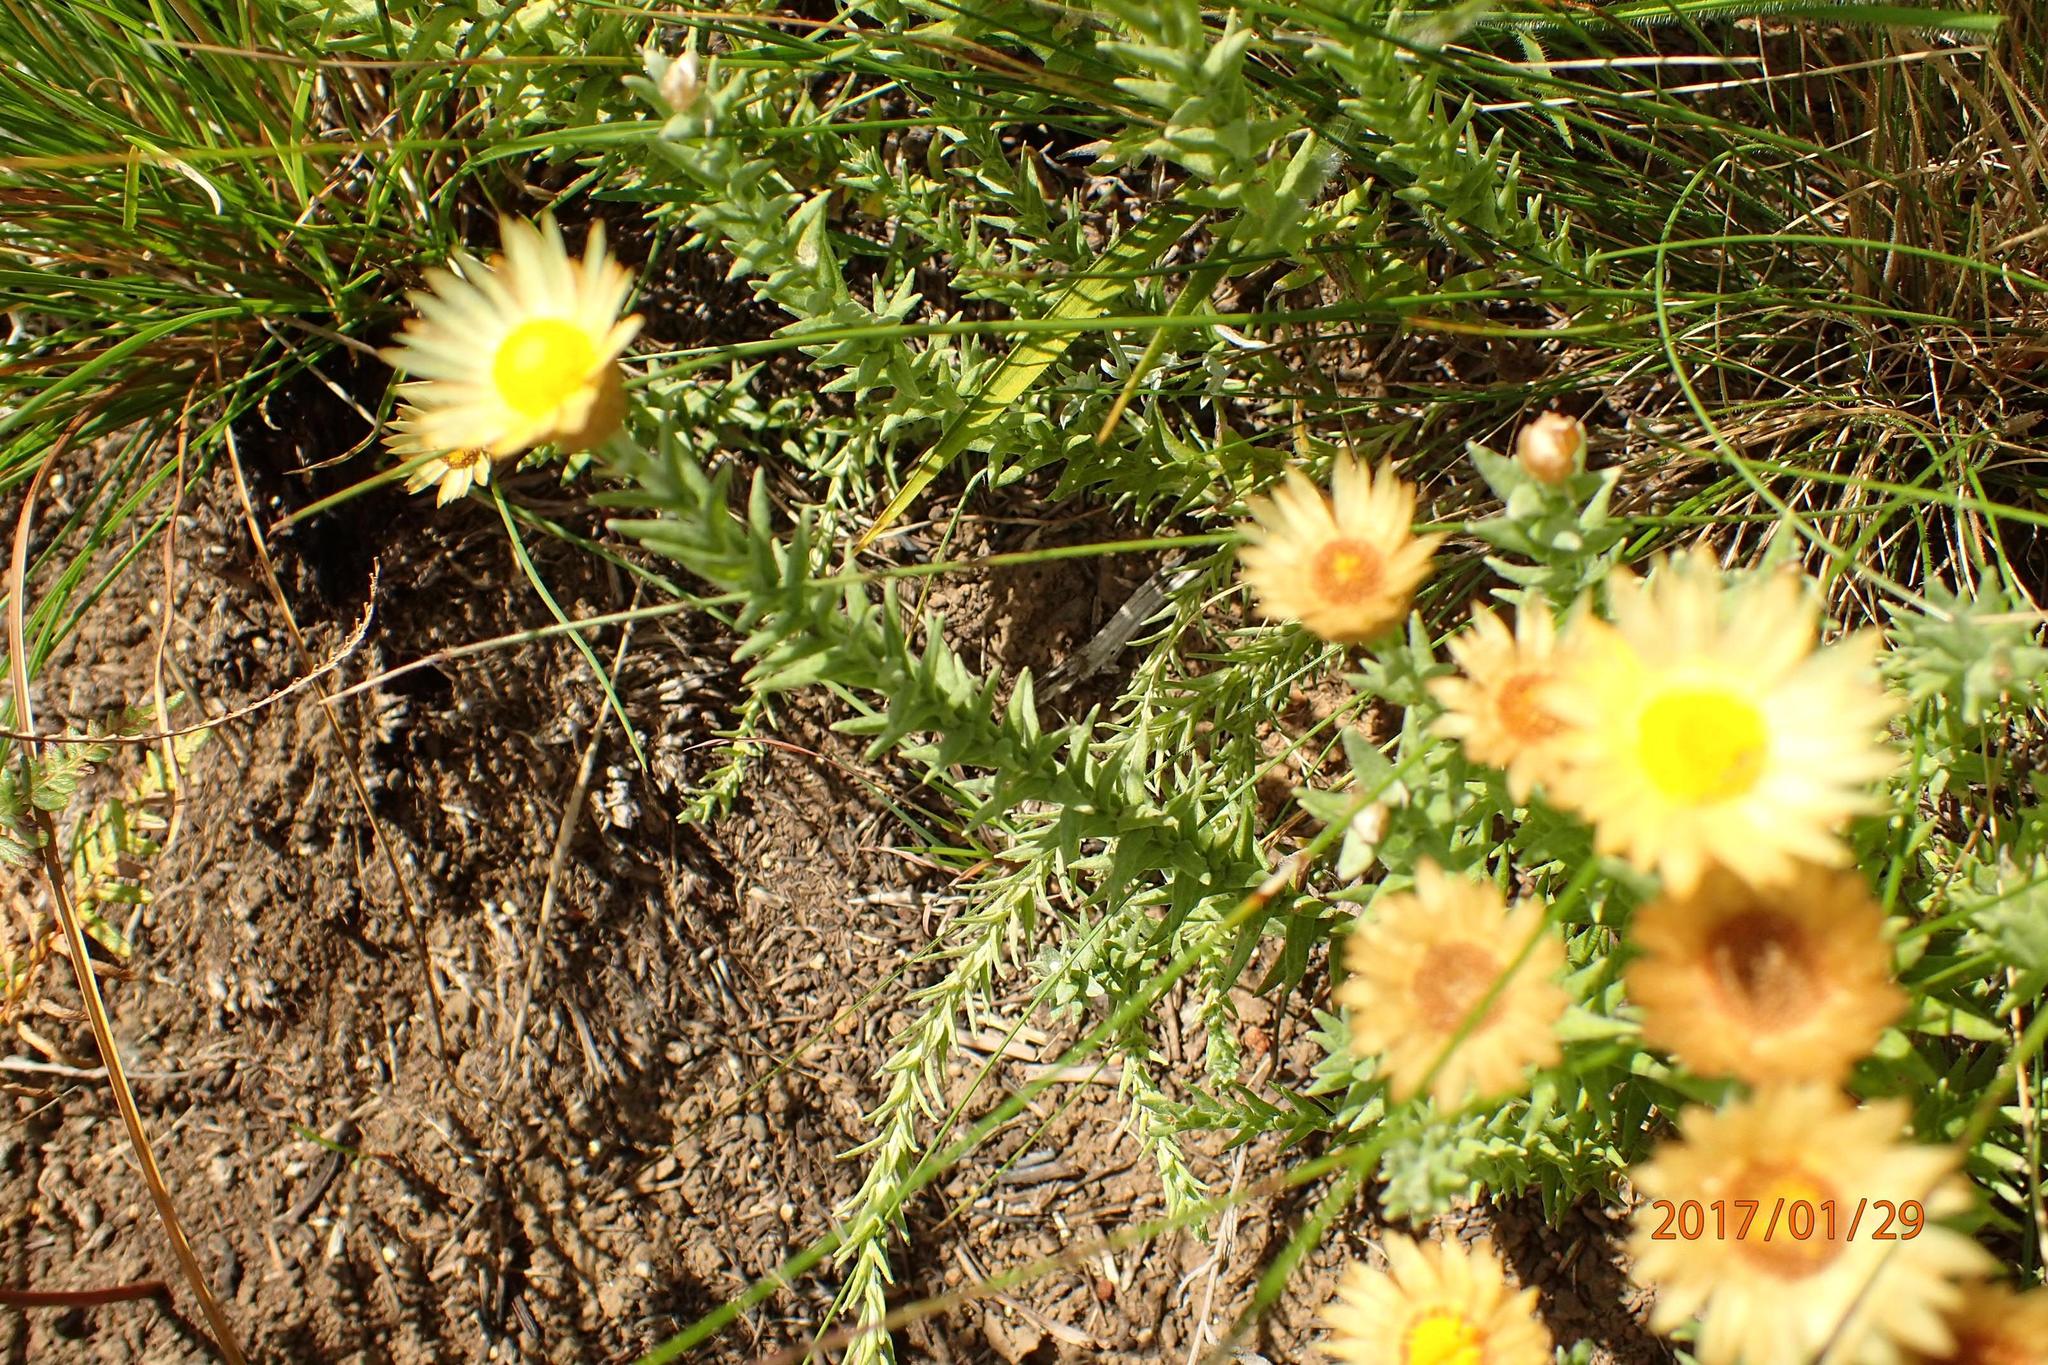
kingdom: Plantae
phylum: Tracheophyta
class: Magnoliopsida
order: Asterales
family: Asteraceae
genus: Helichrysum
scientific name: Helichrysum herbaceum
